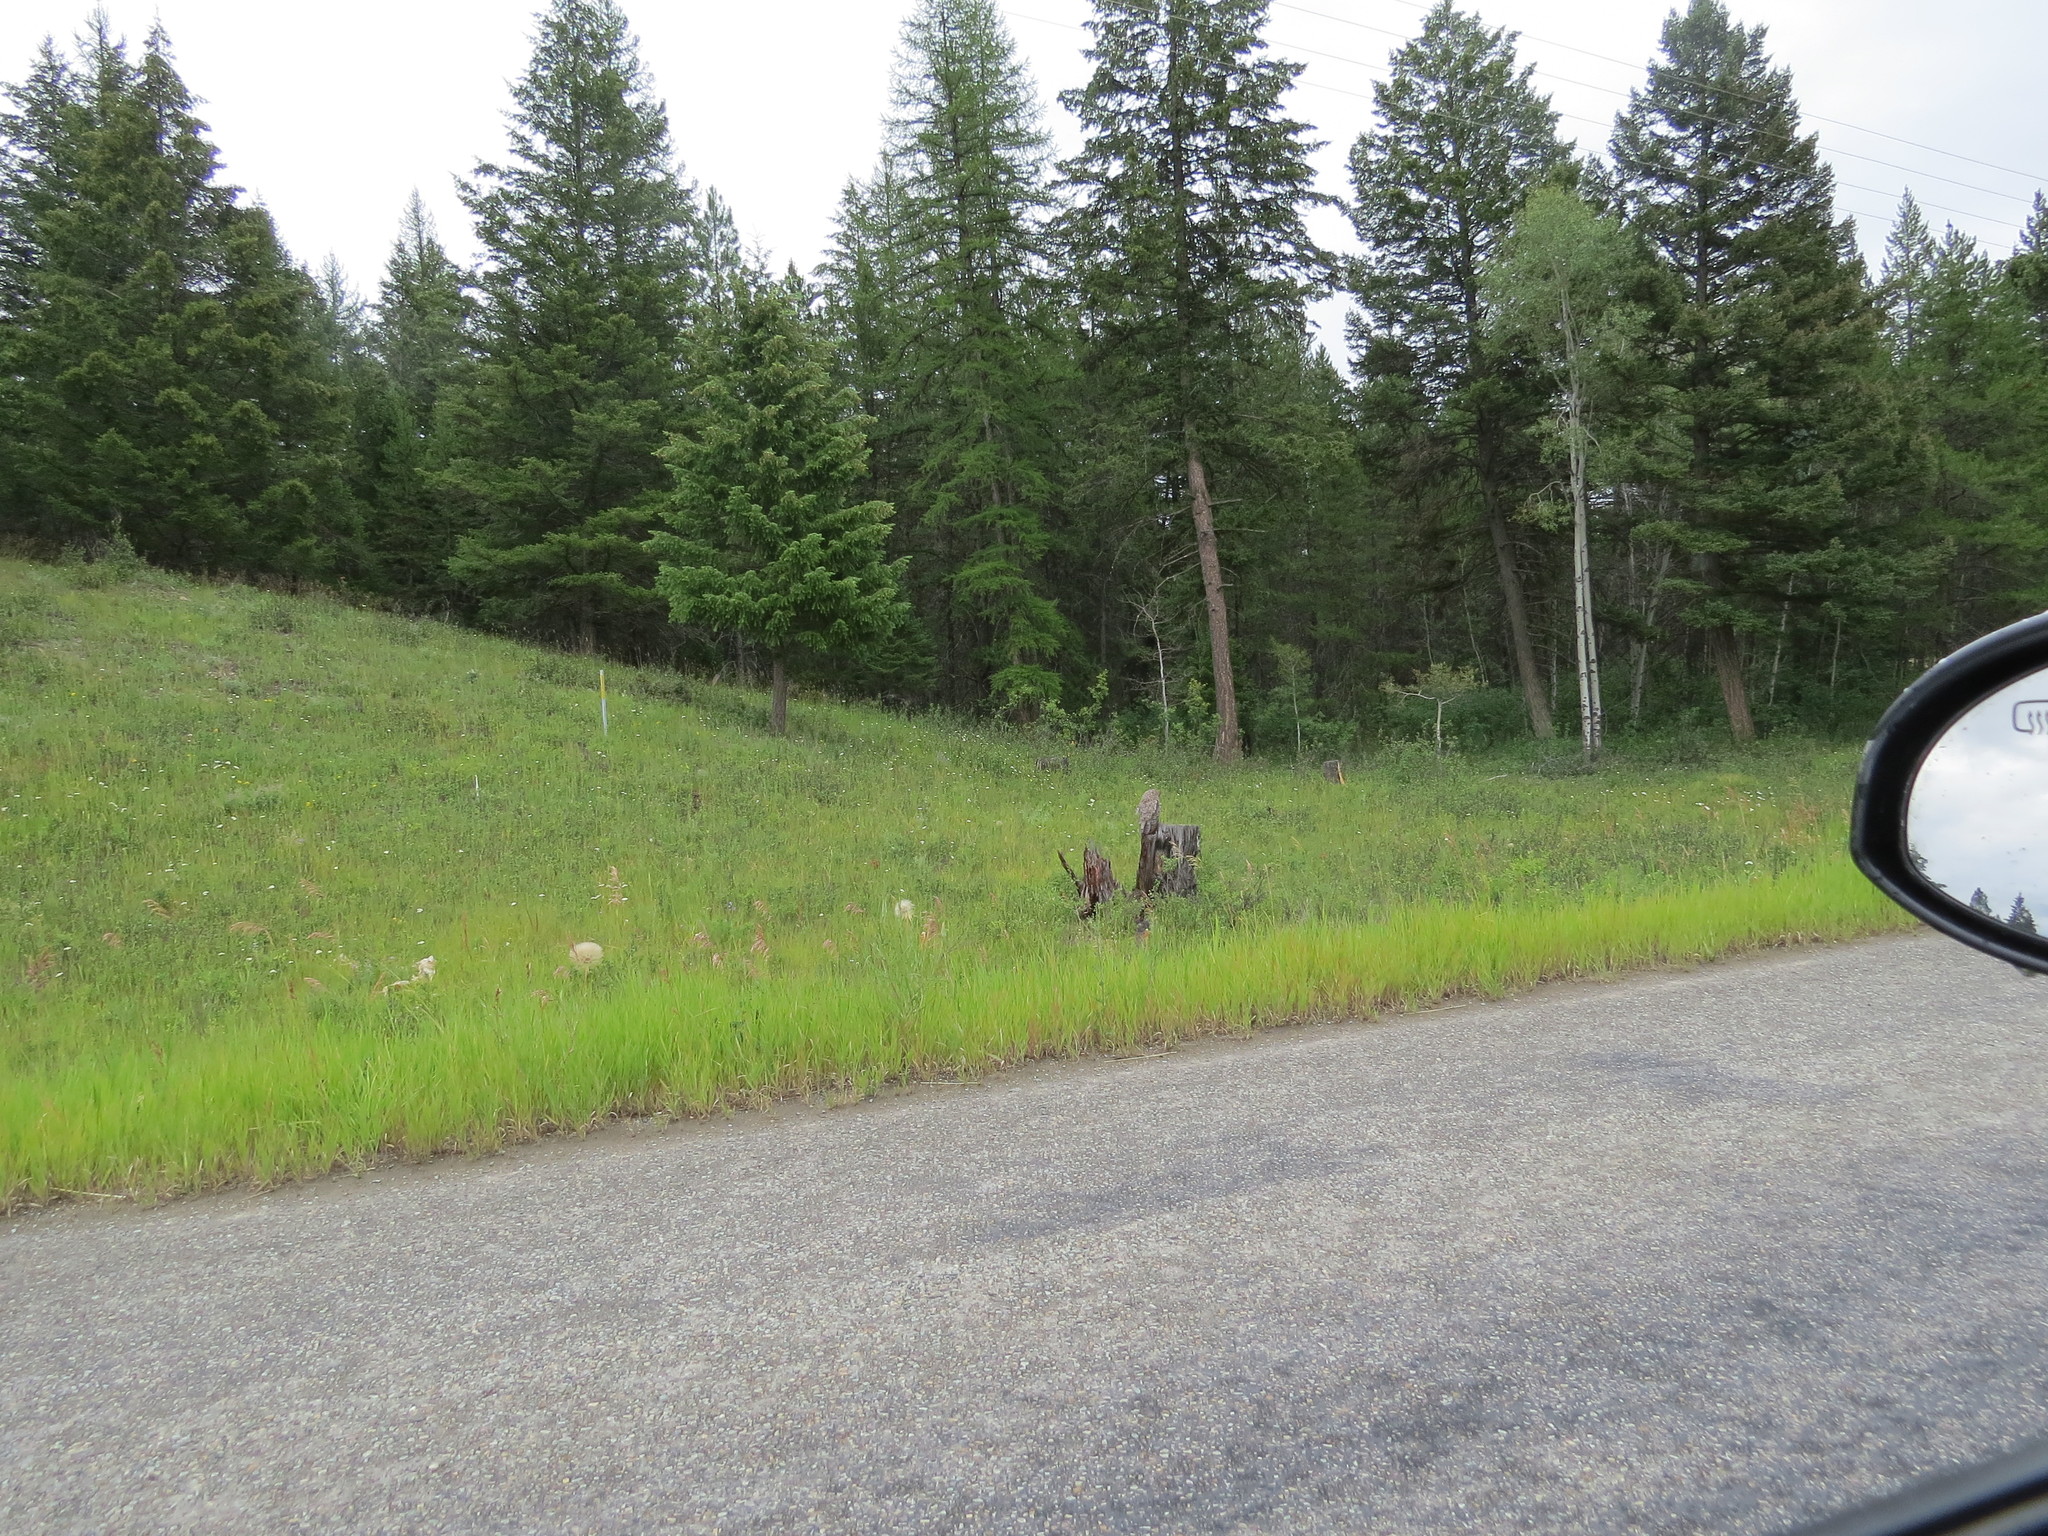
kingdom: Animalia
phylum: Chordata
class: Aves
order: Strigiformes
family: Strigidae
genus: Strix
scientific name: Strix nebulosa
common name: Great grey owl
